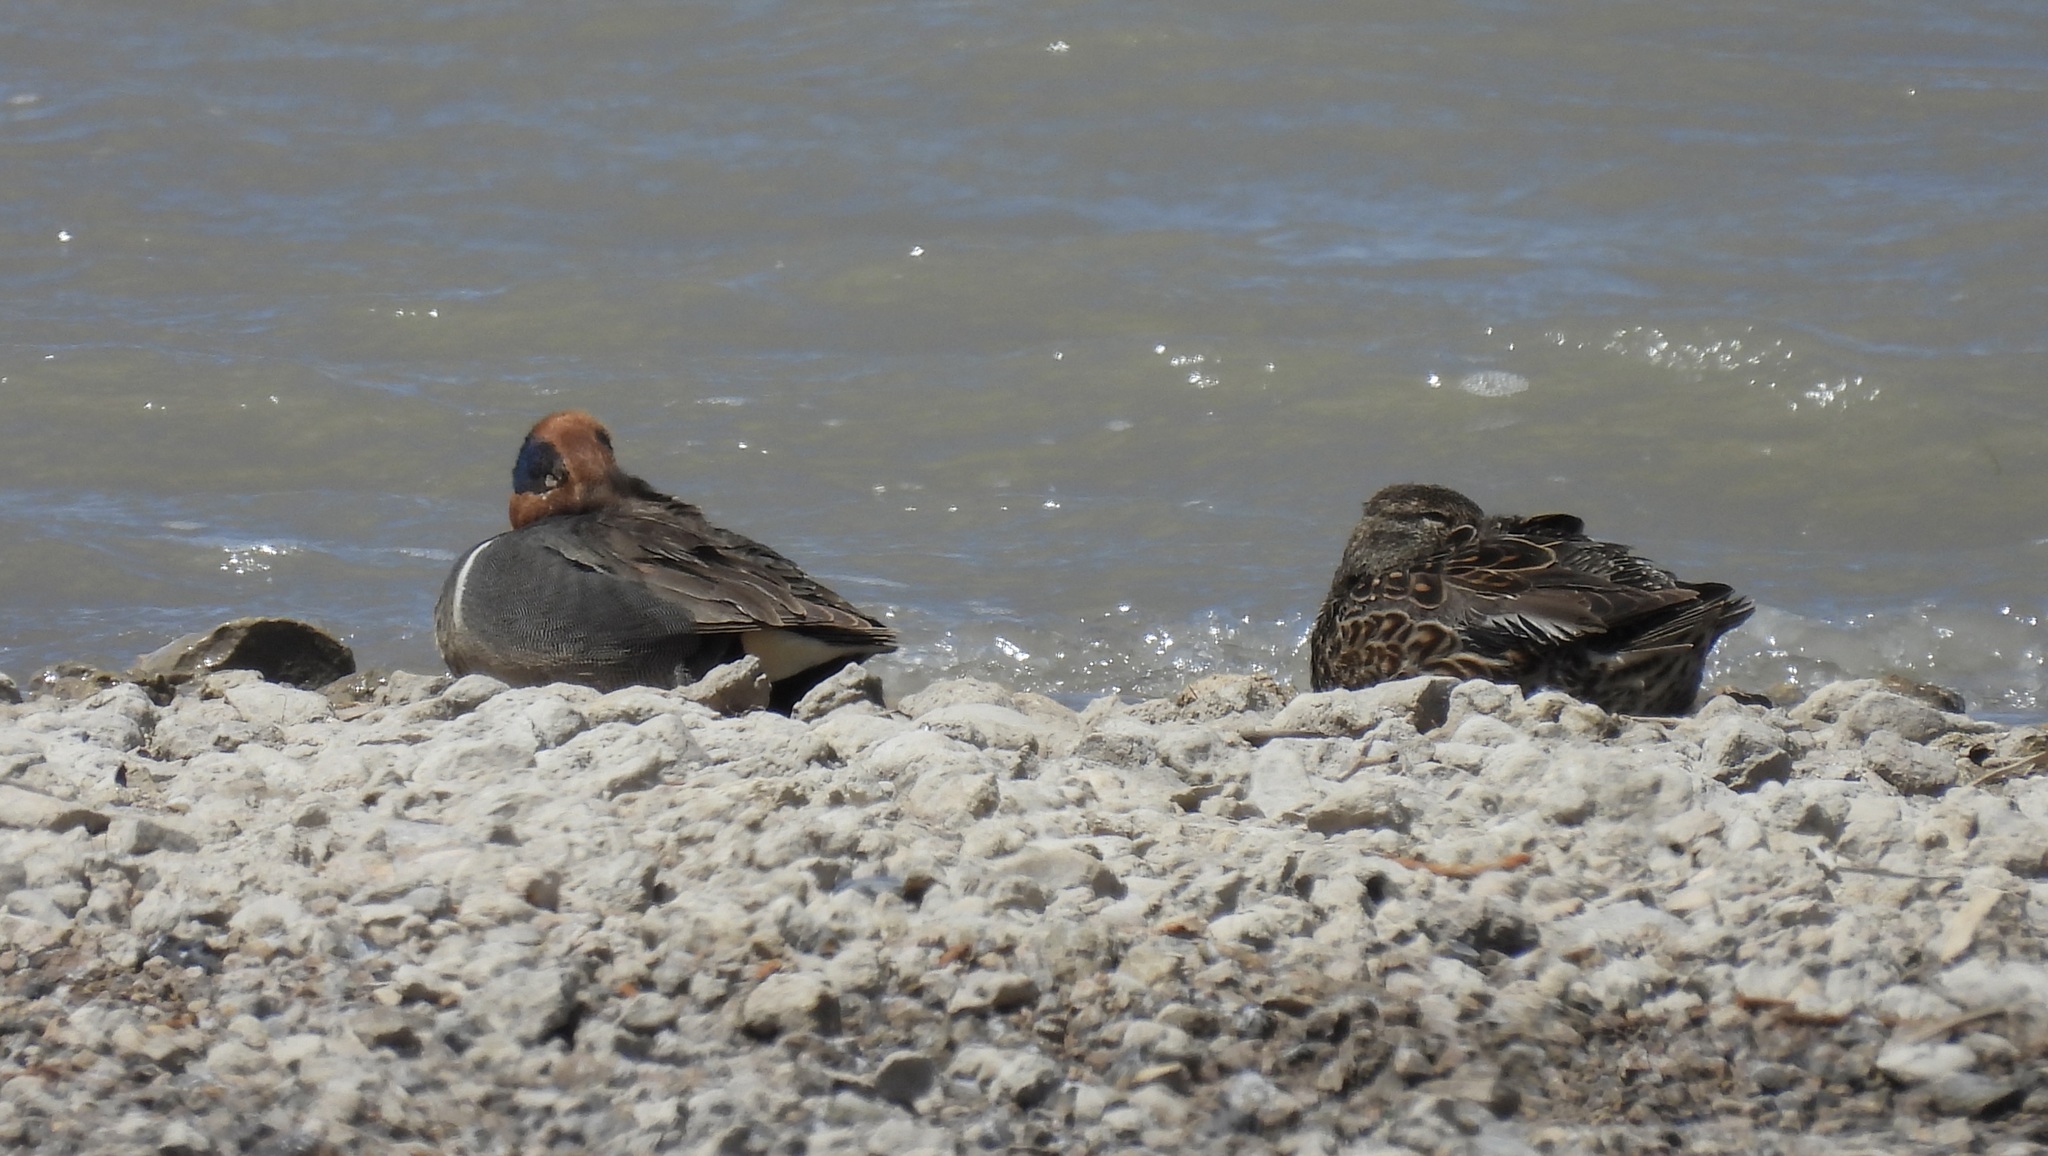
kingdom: Animalia
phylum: Chordata
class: Aves
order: Anseriformes
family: Anatidae
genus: Anas
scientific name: Anas crecca
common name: Eurasian teal
